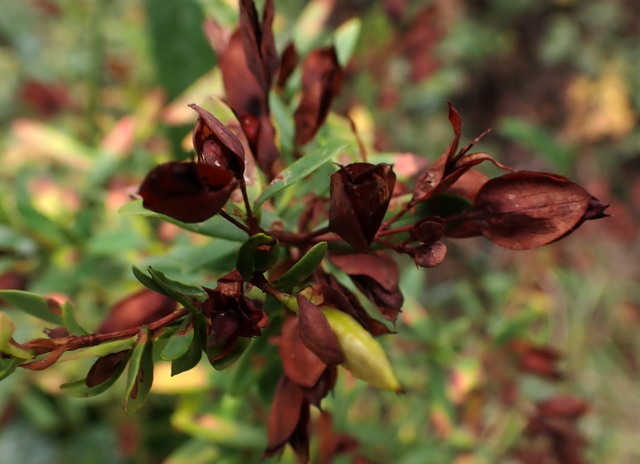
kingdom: Plantae
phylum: Tracheophyta
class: Magnoliopsida
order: Malpighiales
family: Hypericaceae
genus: Hypericum
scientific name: Hypericum hypericoides
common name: St. andrew's cross
